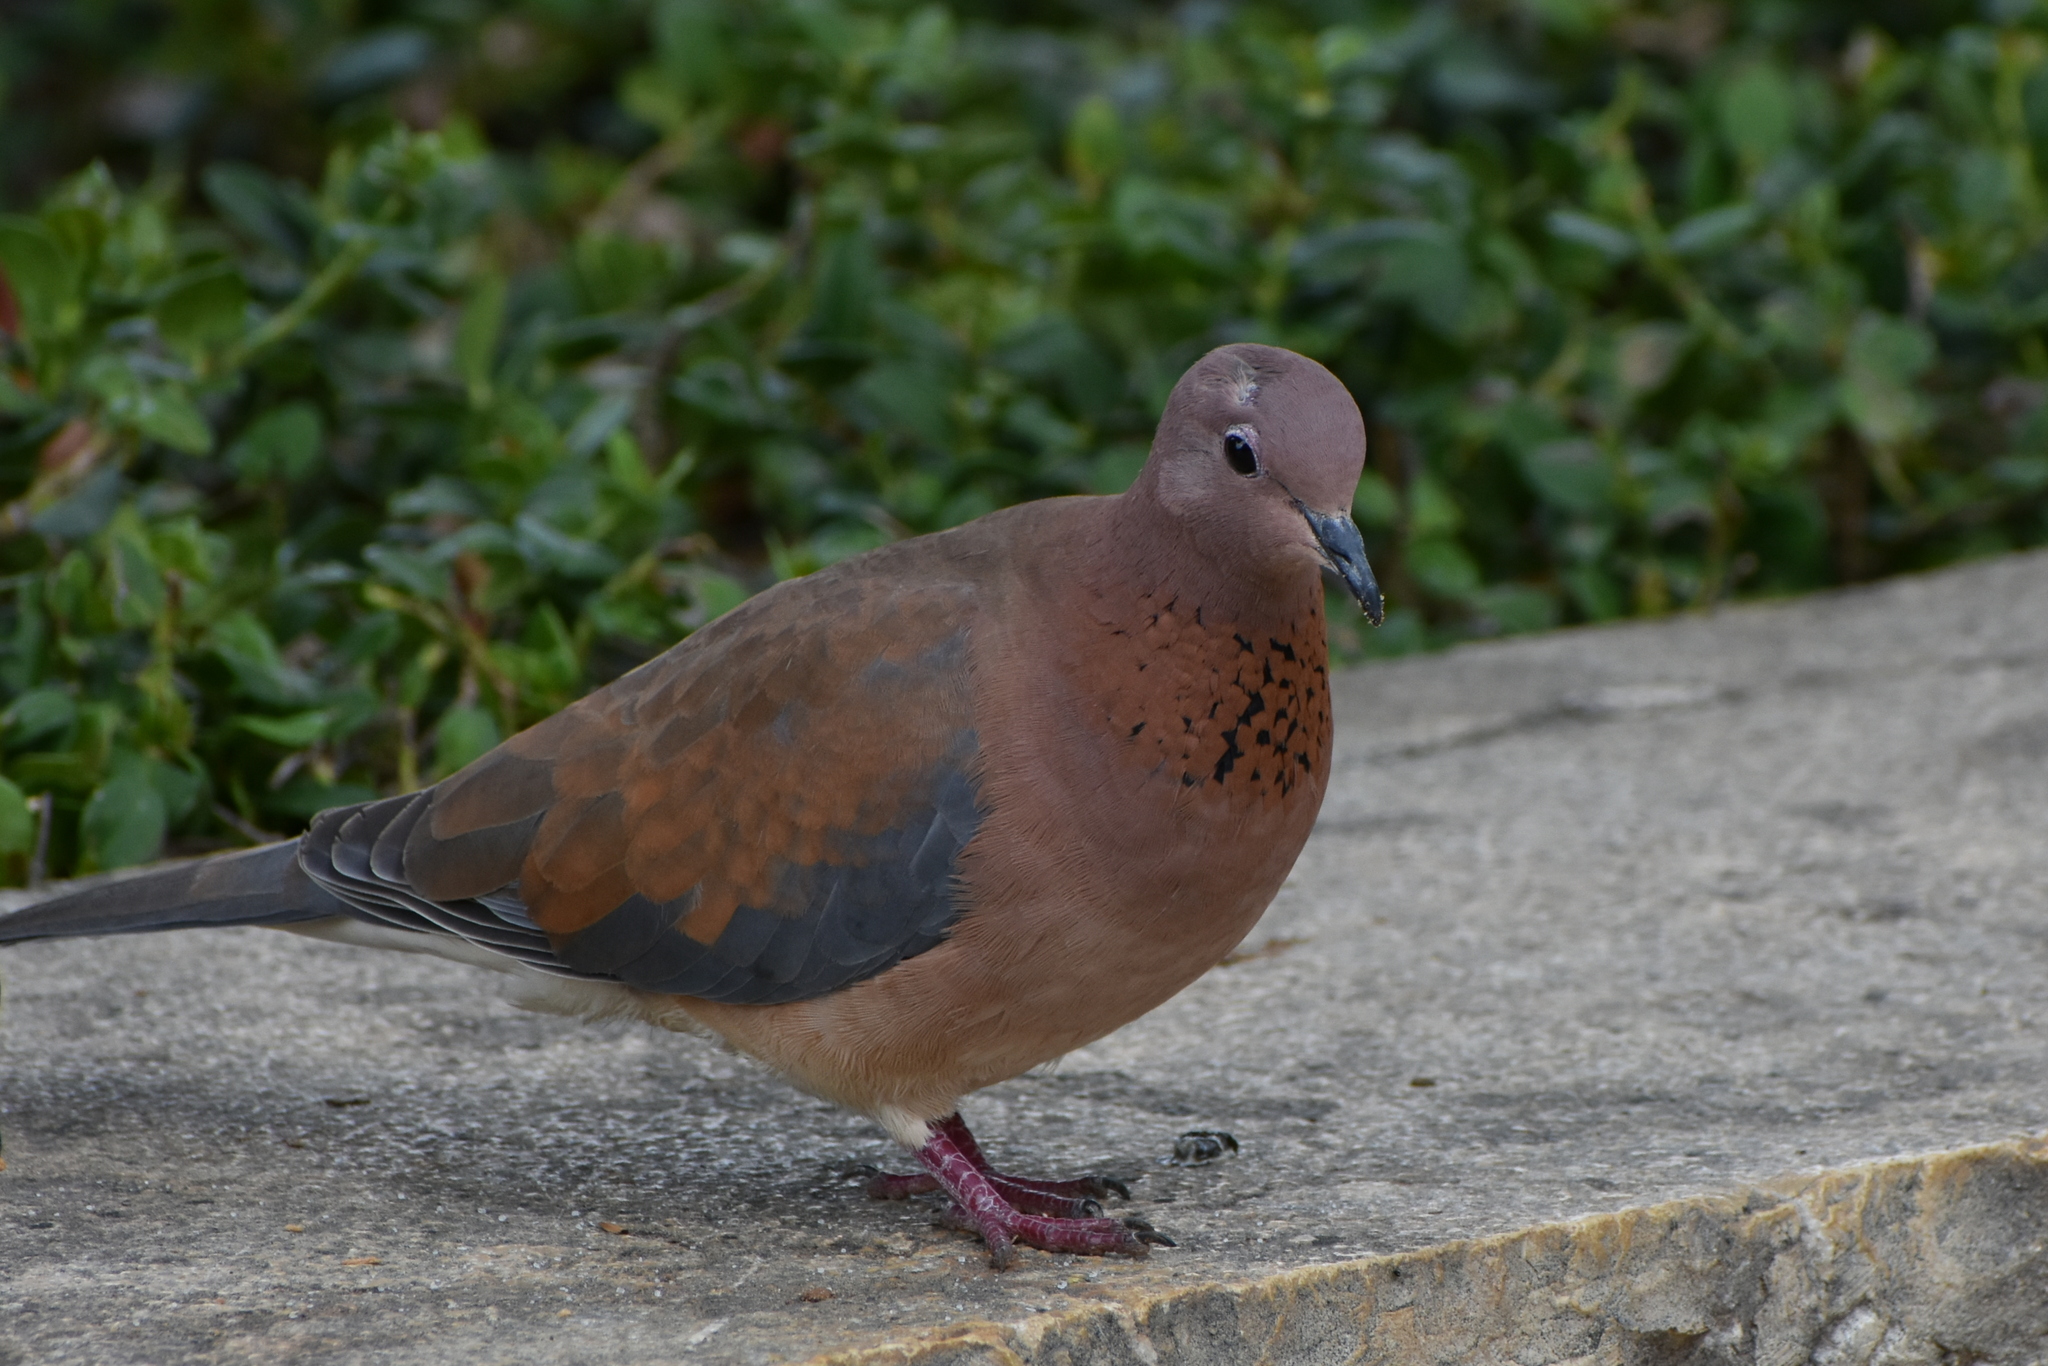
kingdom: Animalia
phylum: Chordata
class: Aves
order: Columbiformes
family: Columbidae
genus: Spilopelia
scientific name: Spilopelia senegalensis
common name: Laughing dove
